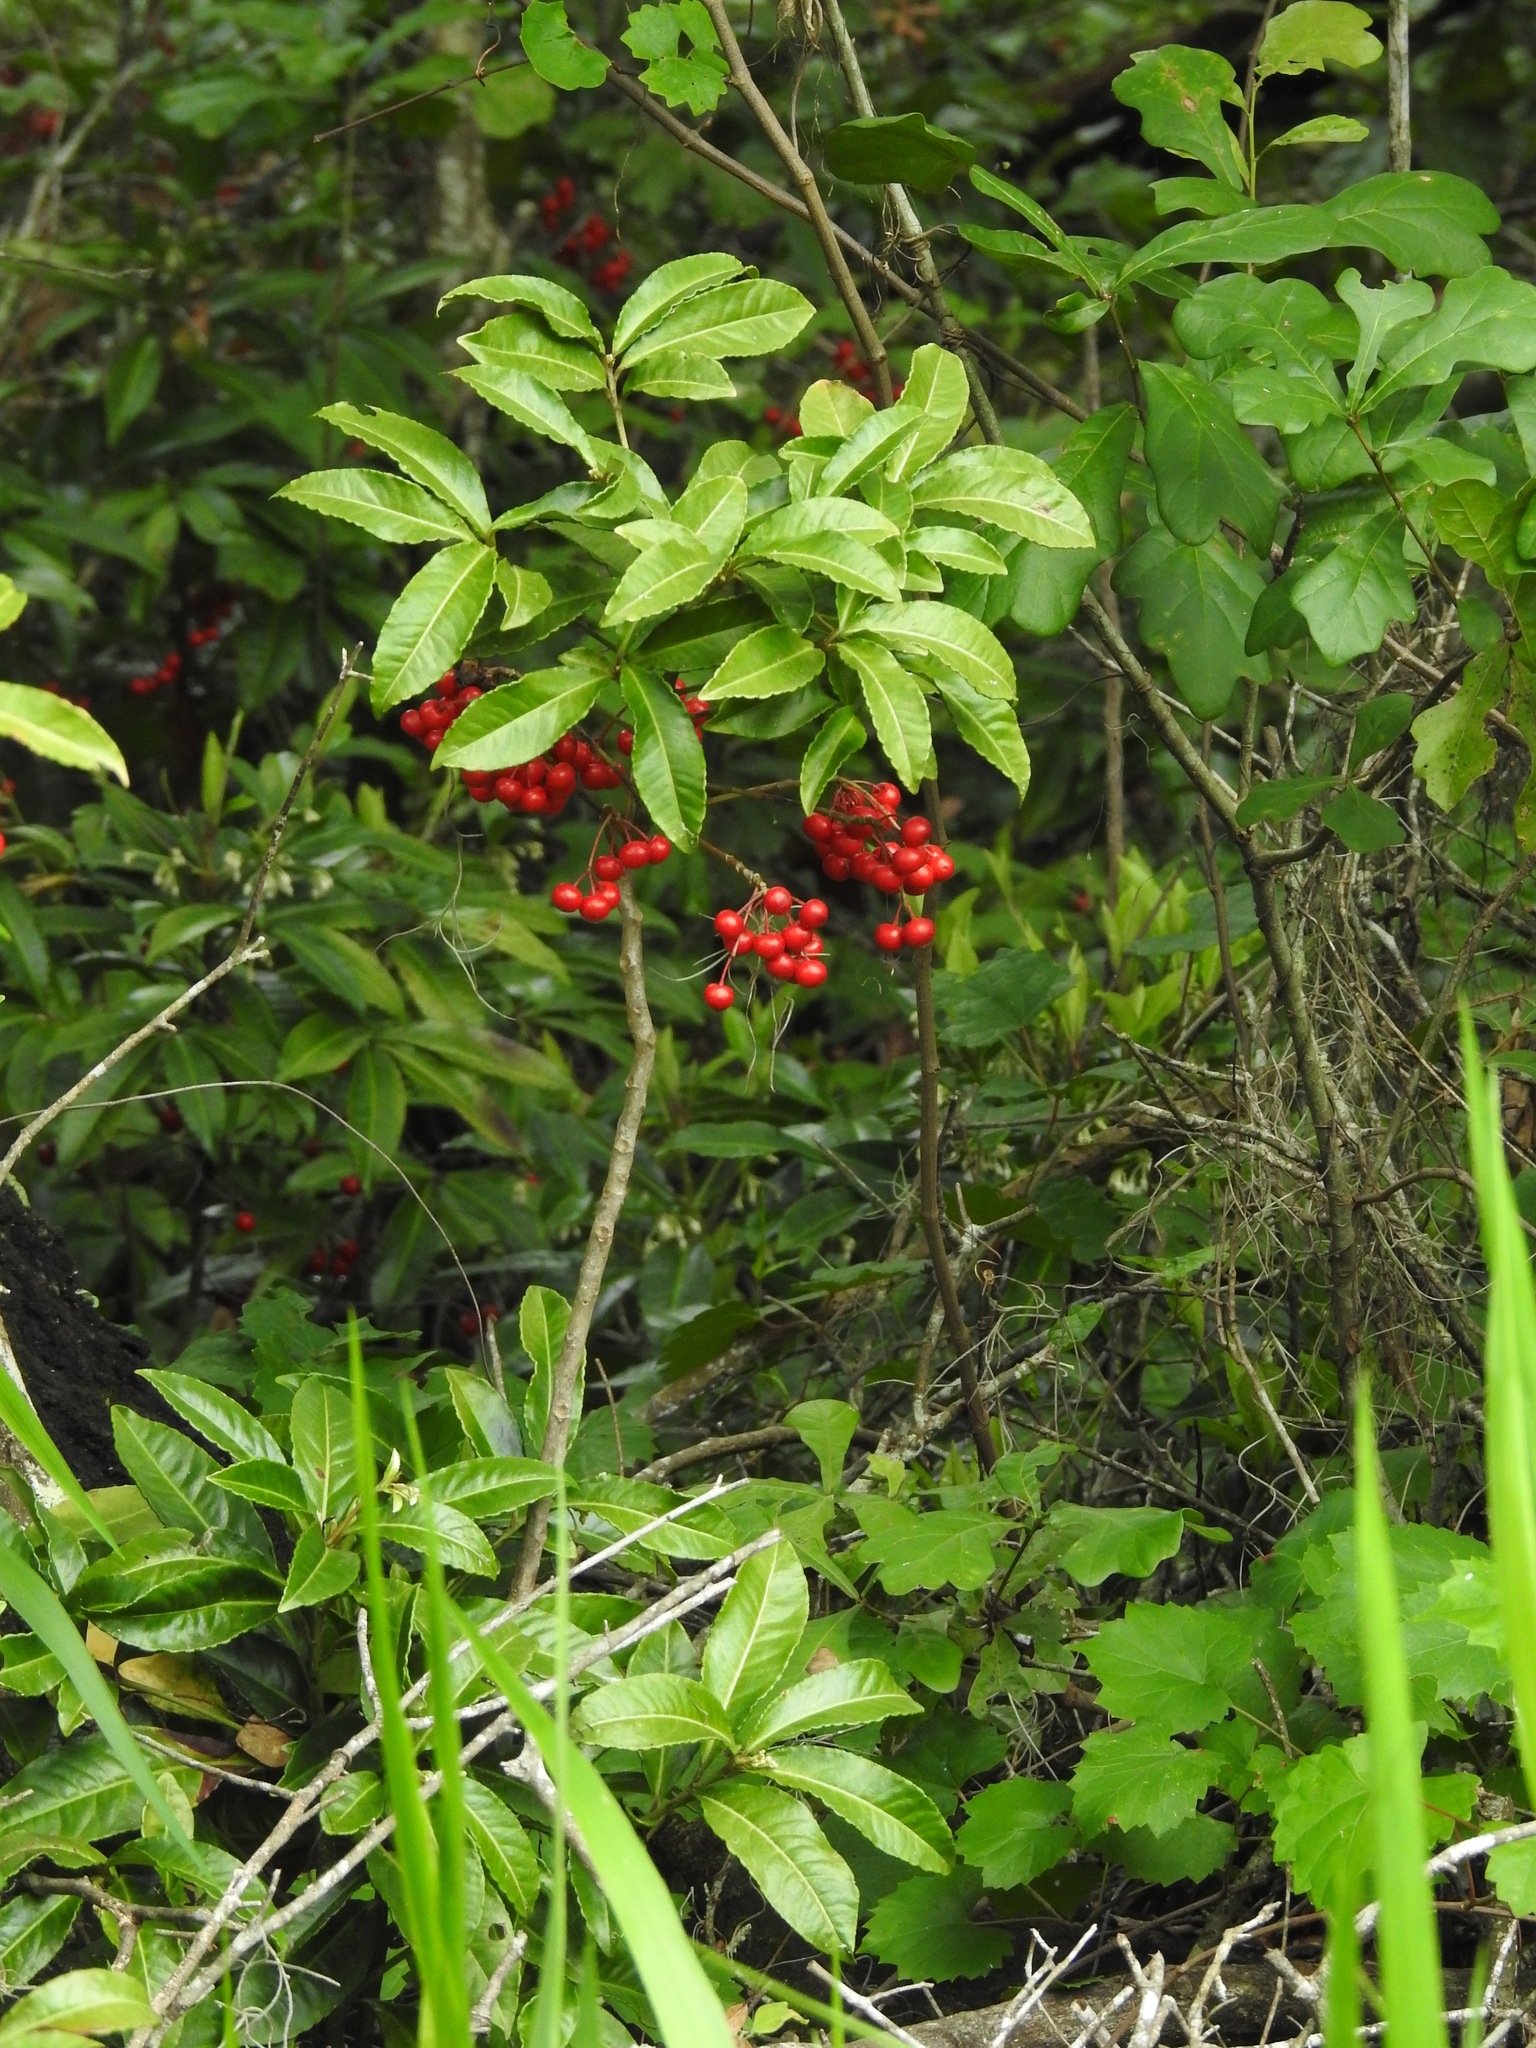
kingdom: Plantae
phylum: Tracheophyta
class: Magnoliopsida
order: Ericales
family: Primulaceae
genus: Ardisia
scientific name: Ardisia crenata
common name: Hen's eyes
